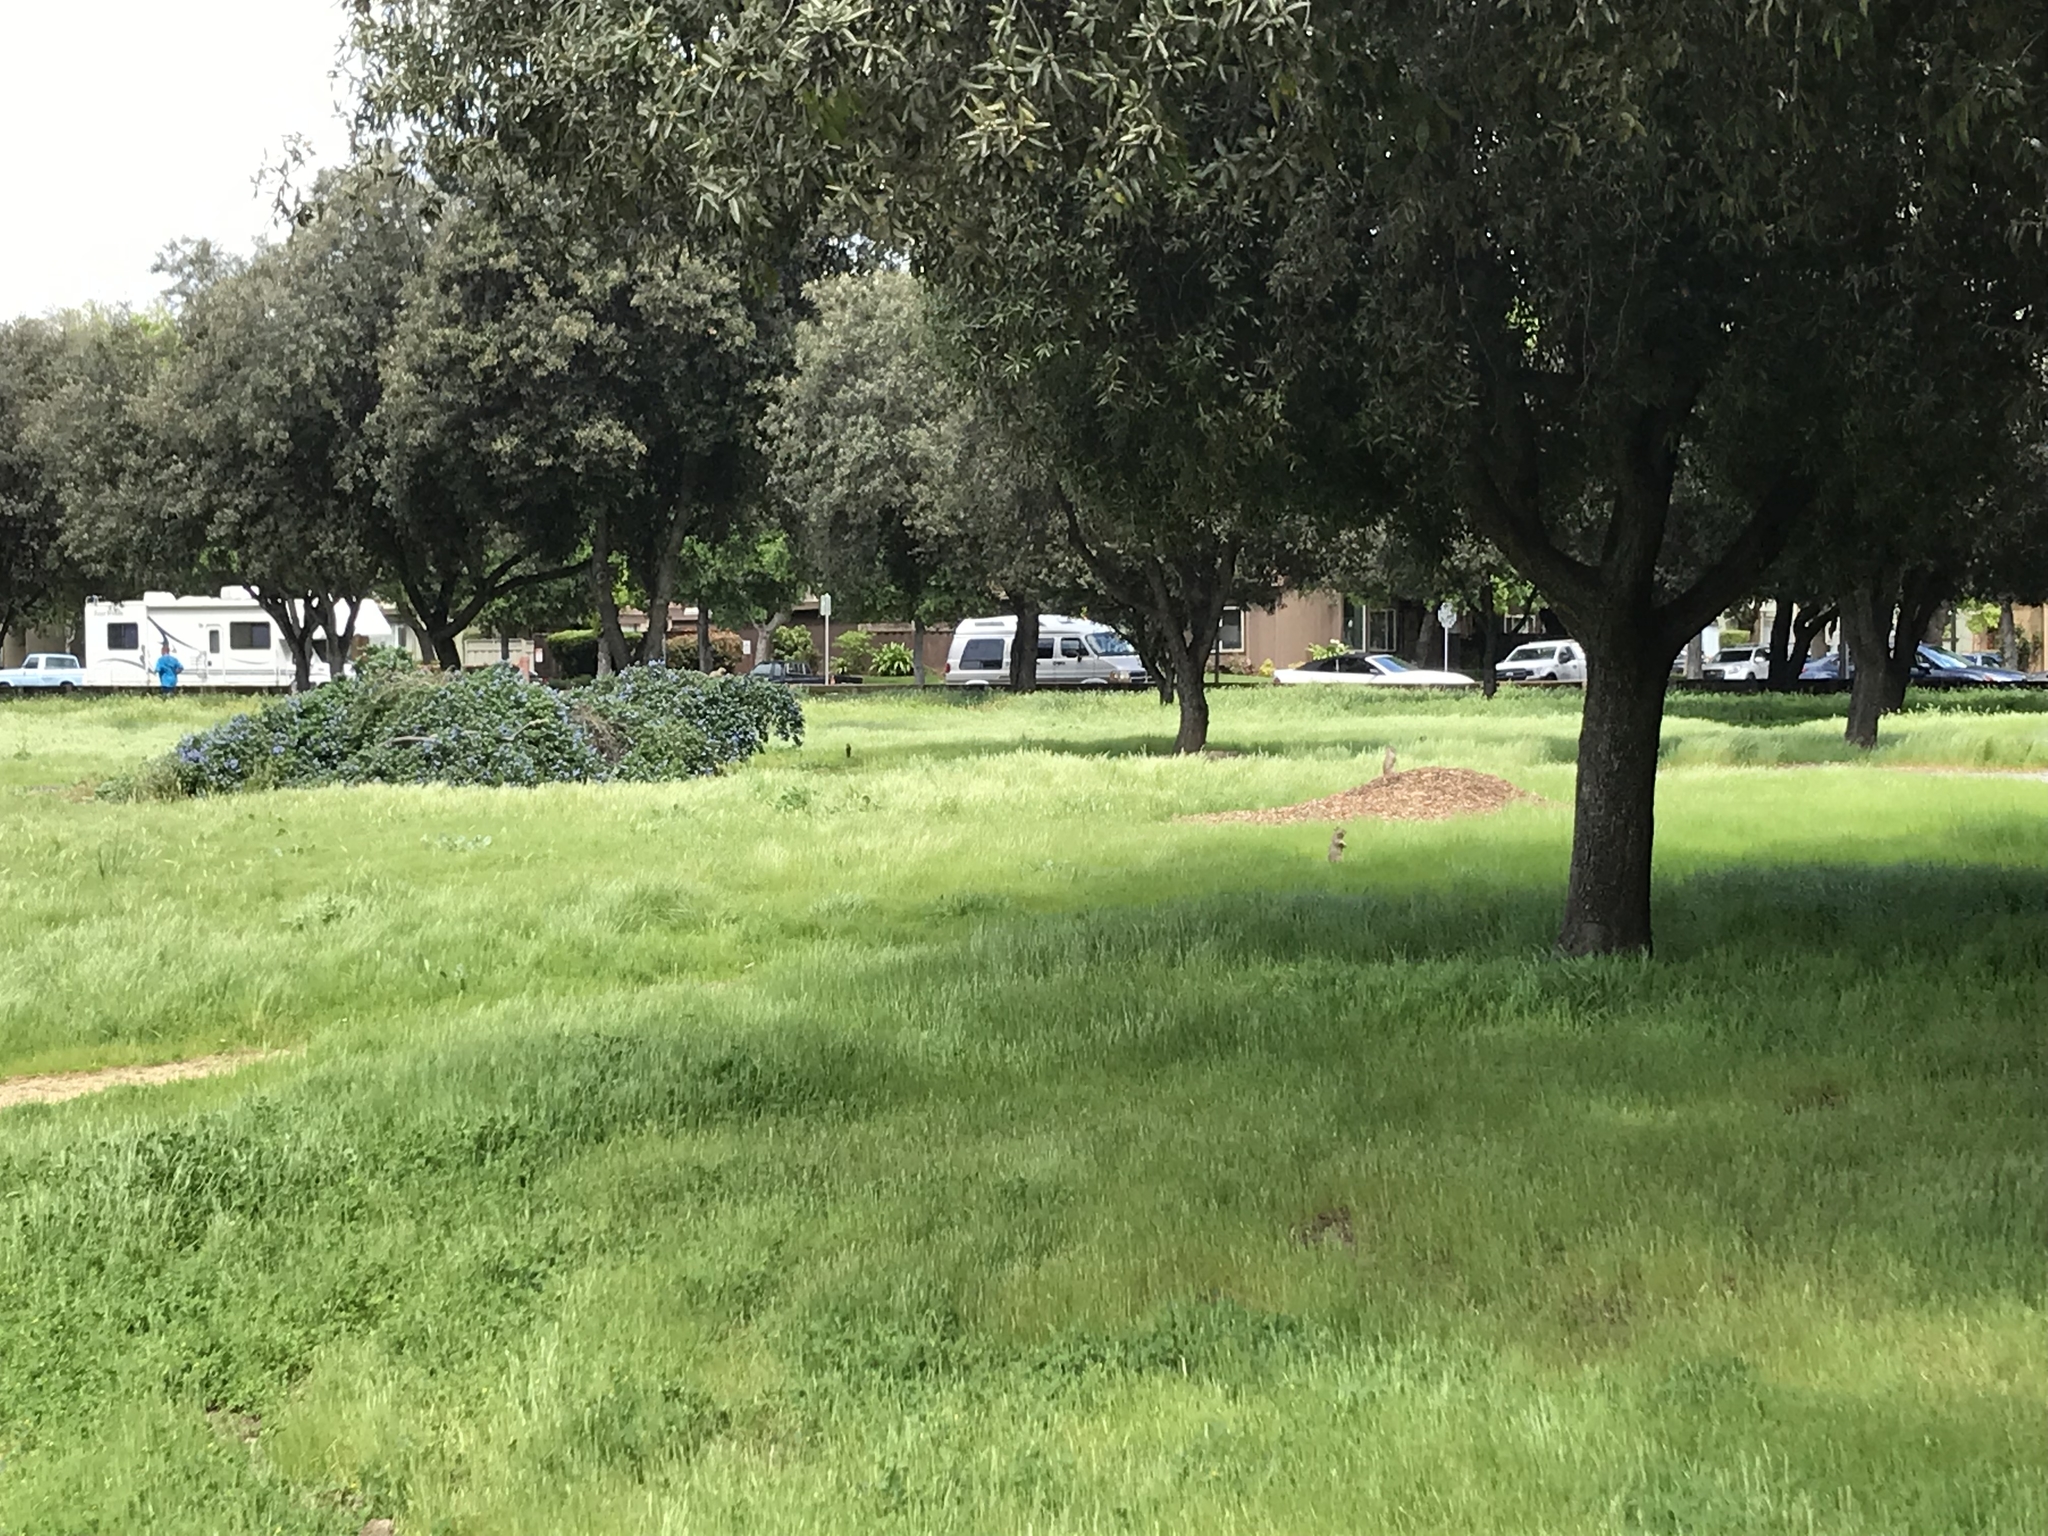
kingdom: Animalia
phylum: Chordata
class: Mammalia
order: Rodentia
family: Sciuridae
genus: Otospermophilus
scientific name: Otospermophilus beecheyi
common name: California ground squirrel
